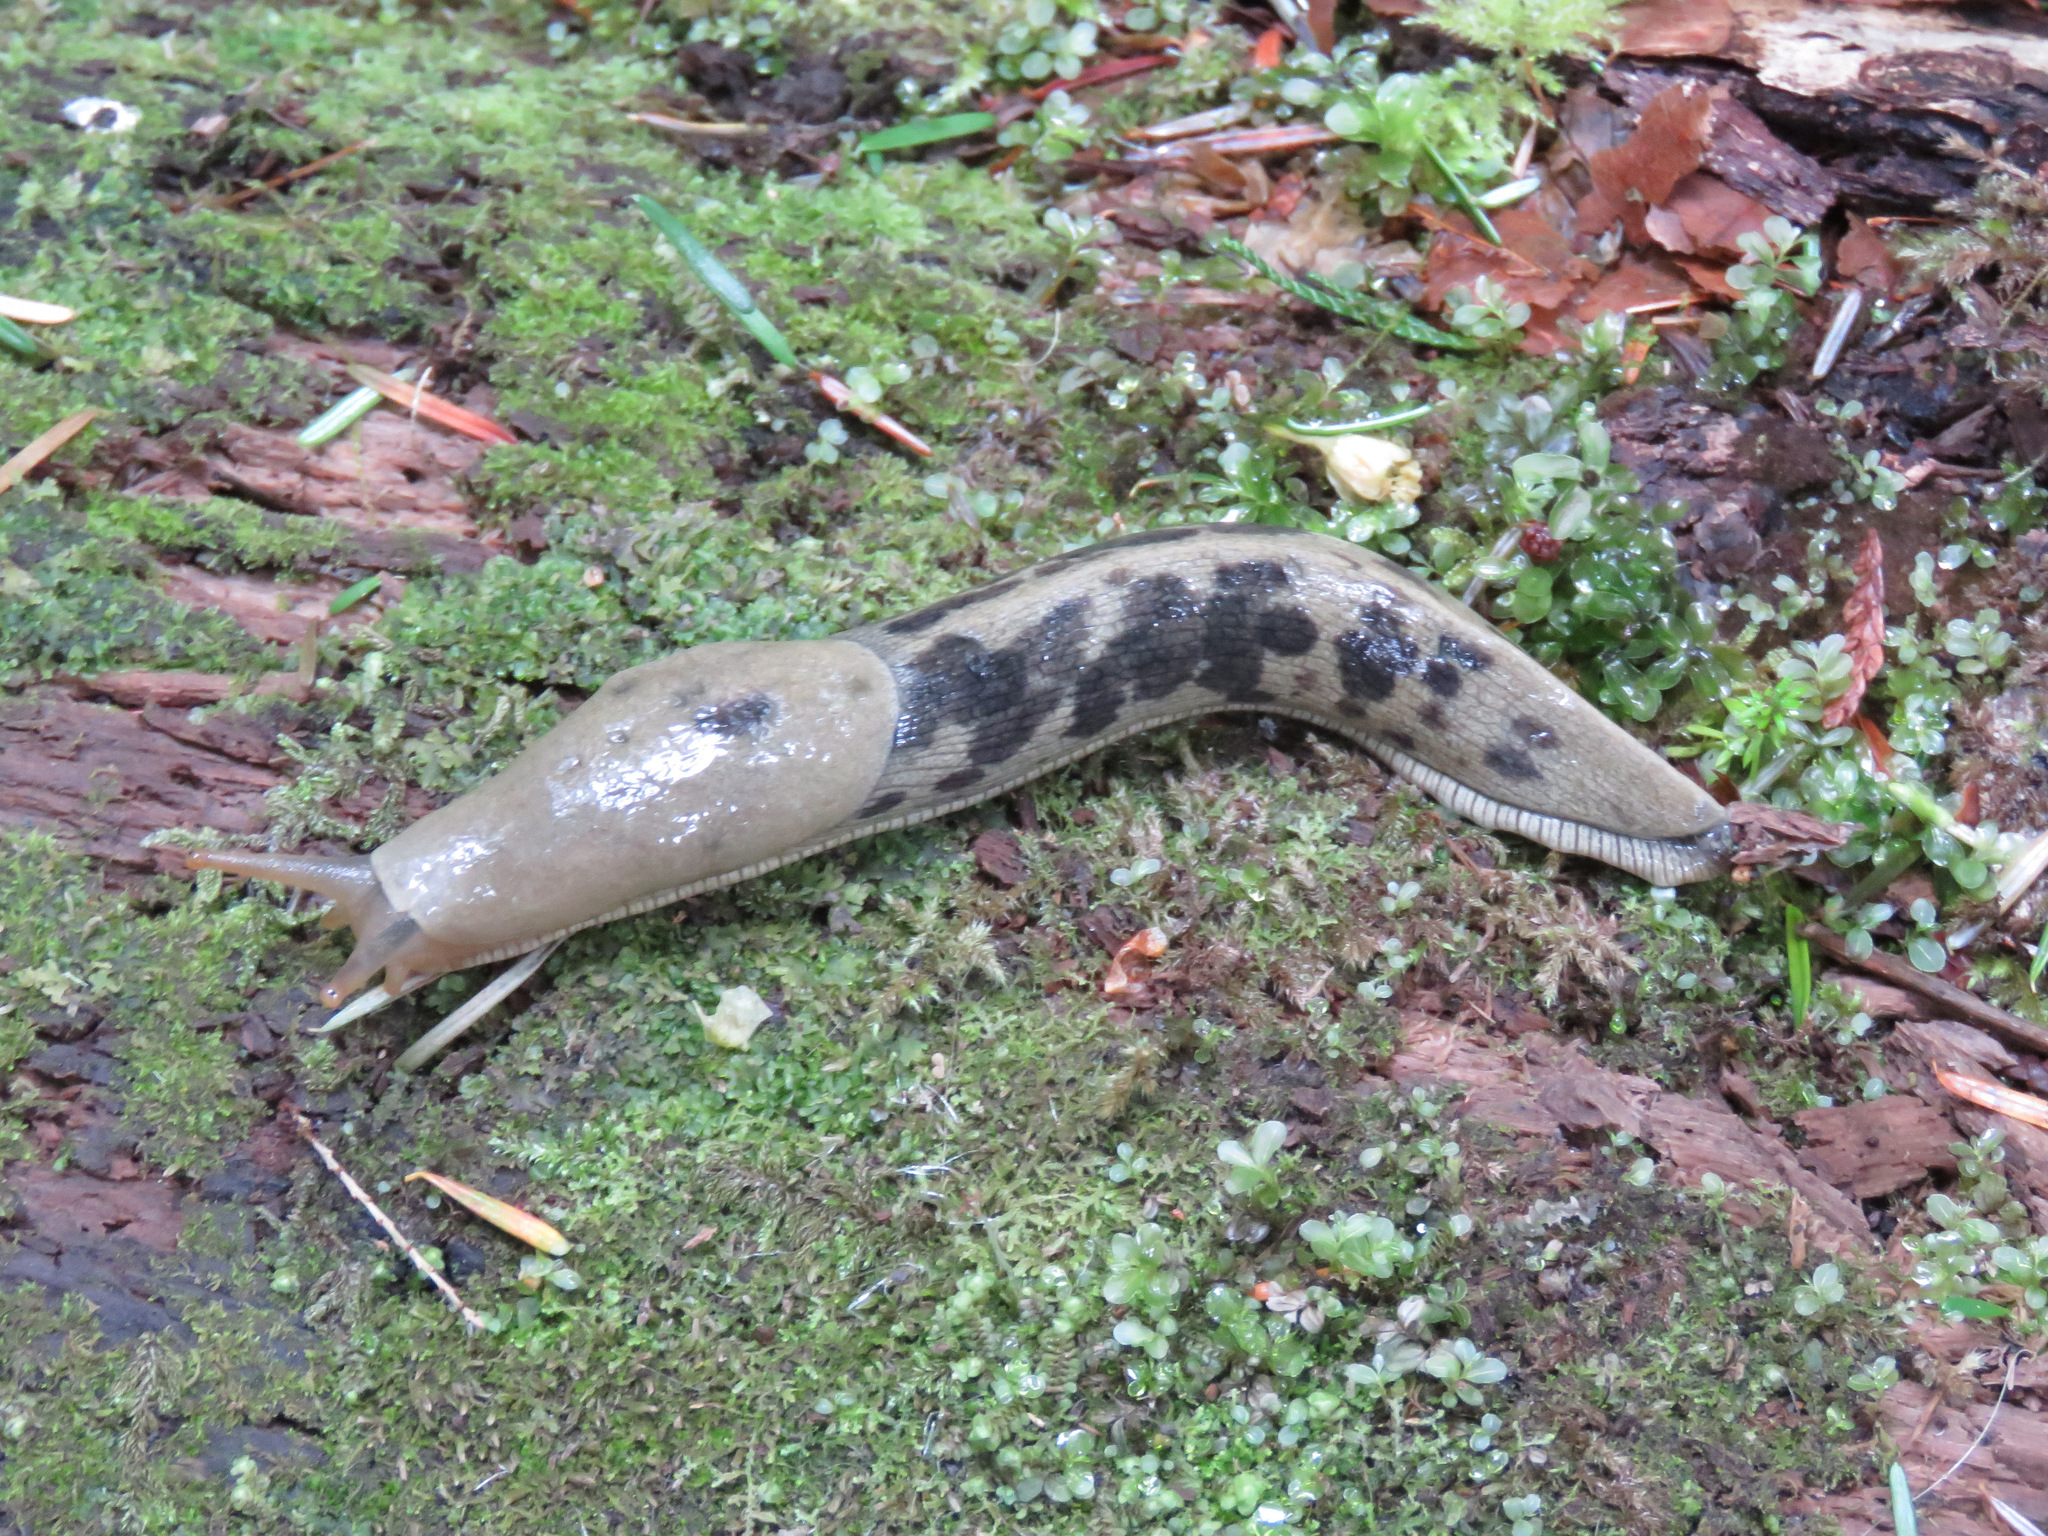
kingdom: Animalia
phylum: Mollusca
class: Gastropoda
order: Stylommatophora
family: Ariolimacidae
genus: Ariolimax
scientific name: Ariolimax columbianus
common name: Pacific banana slug
